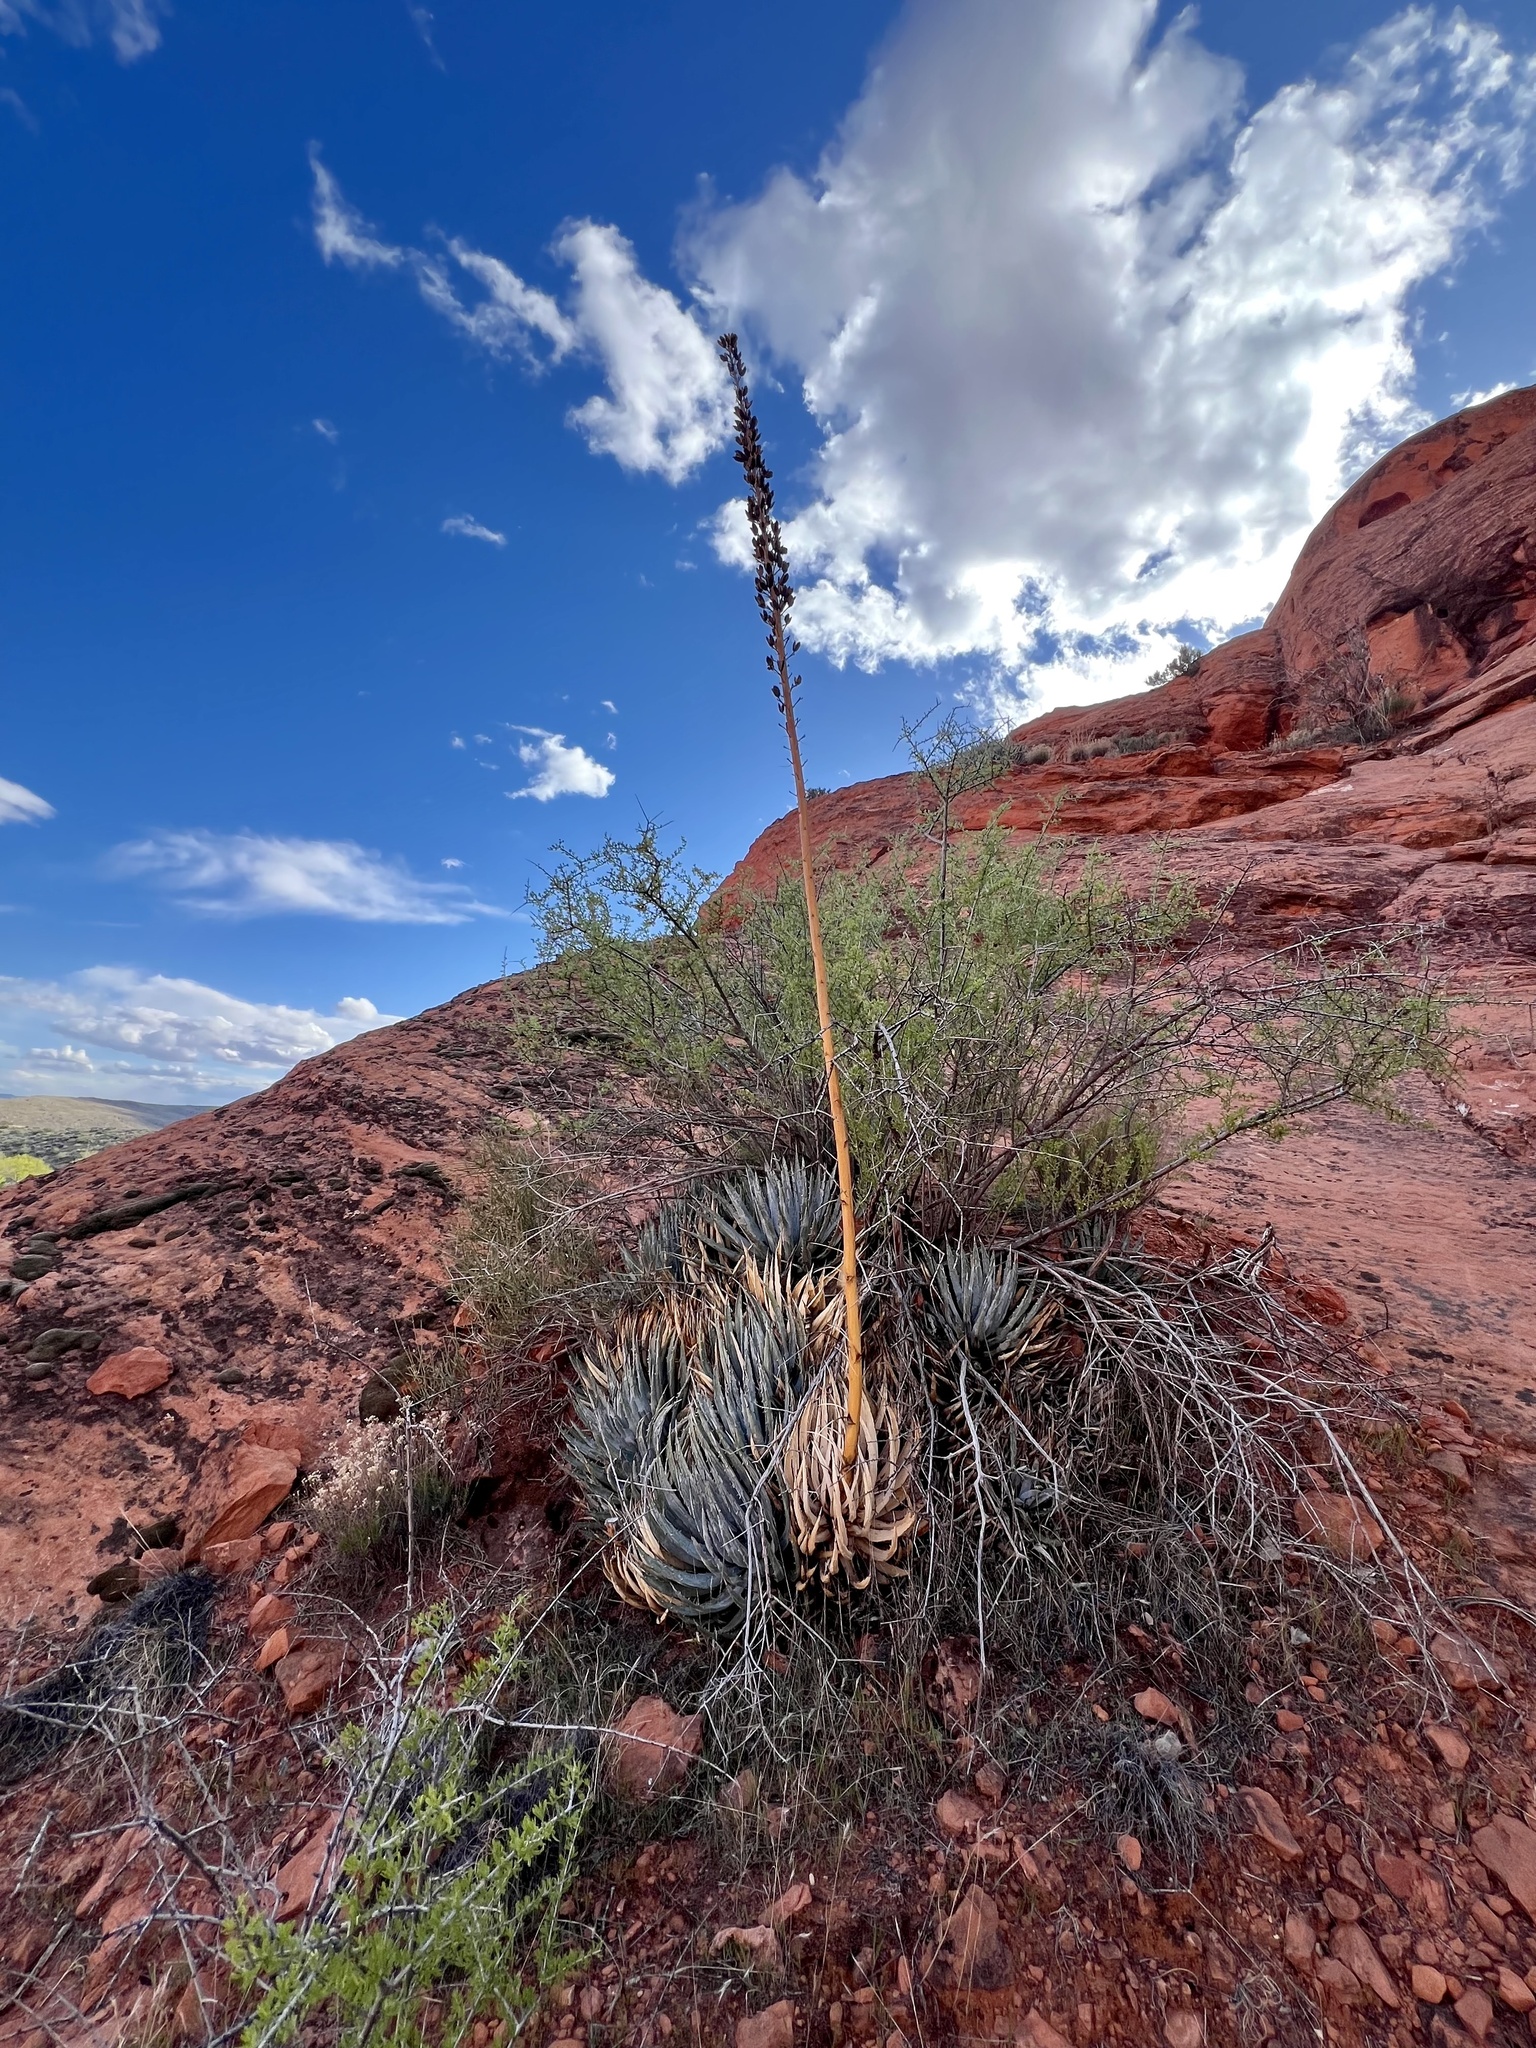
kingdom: Plantae
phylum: Tracheophyta
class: Liliopsida
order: Asparagales
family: Asparagaceae
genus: Agave
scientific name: Agave utahensis
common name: Utah agave
